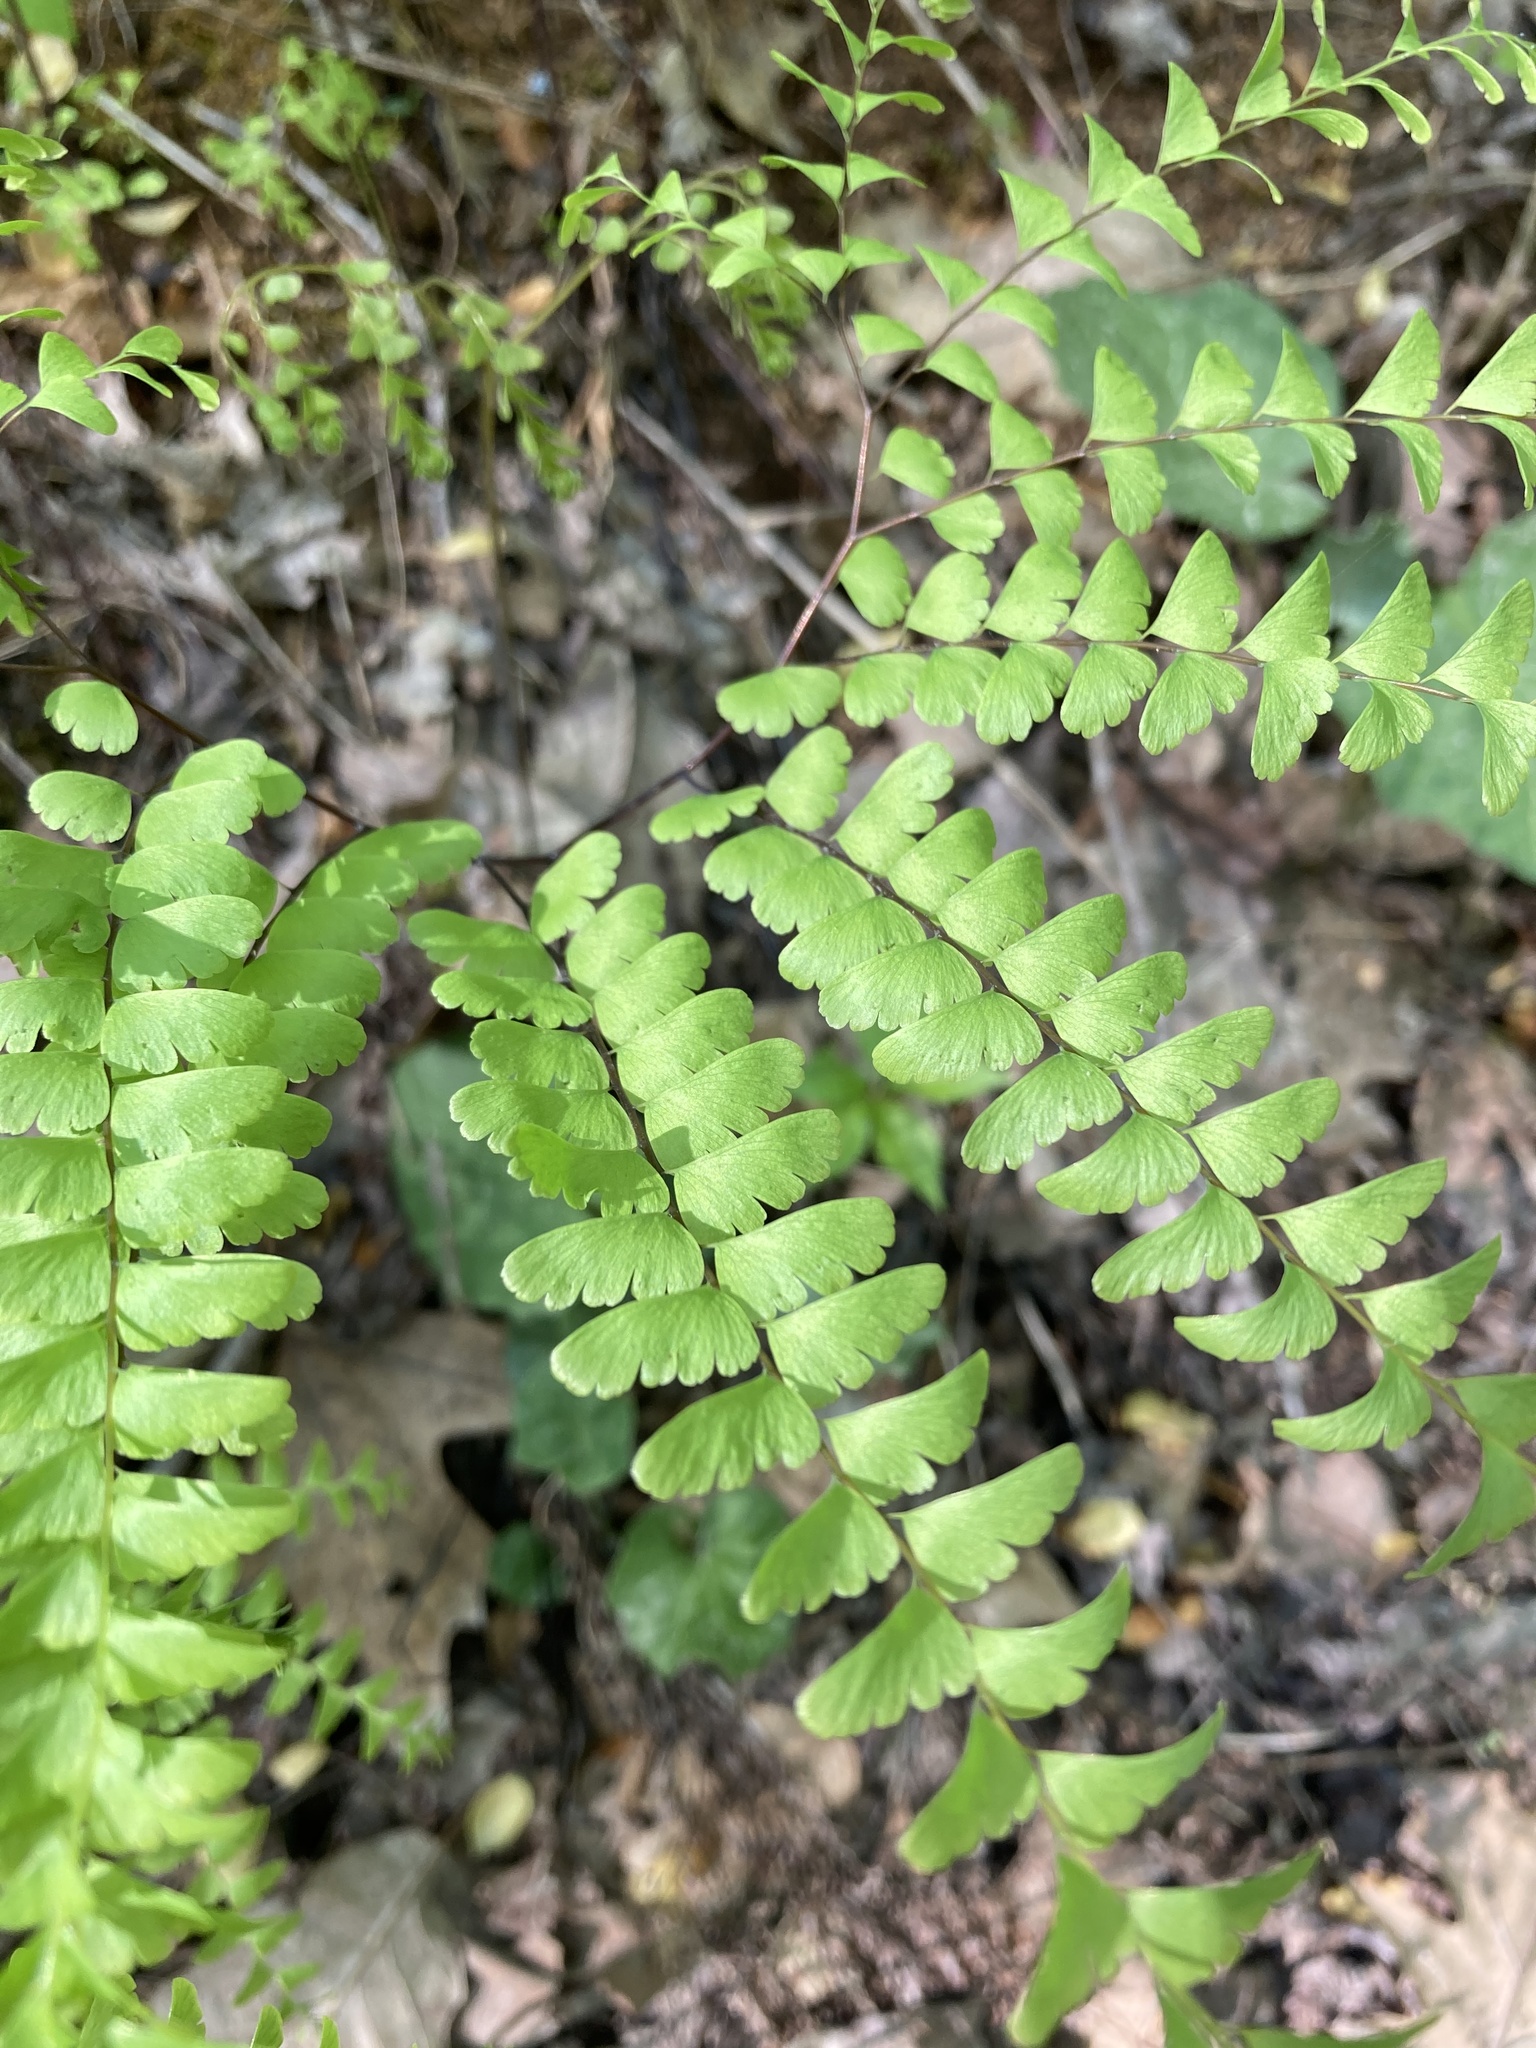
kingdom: Plantae
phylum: Tracheophyta
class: Polypodiopsida
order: Polypodiales
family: Pteridaceae
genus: Adiantum
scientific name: Adiantum pedatum
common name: Five-finger fern
